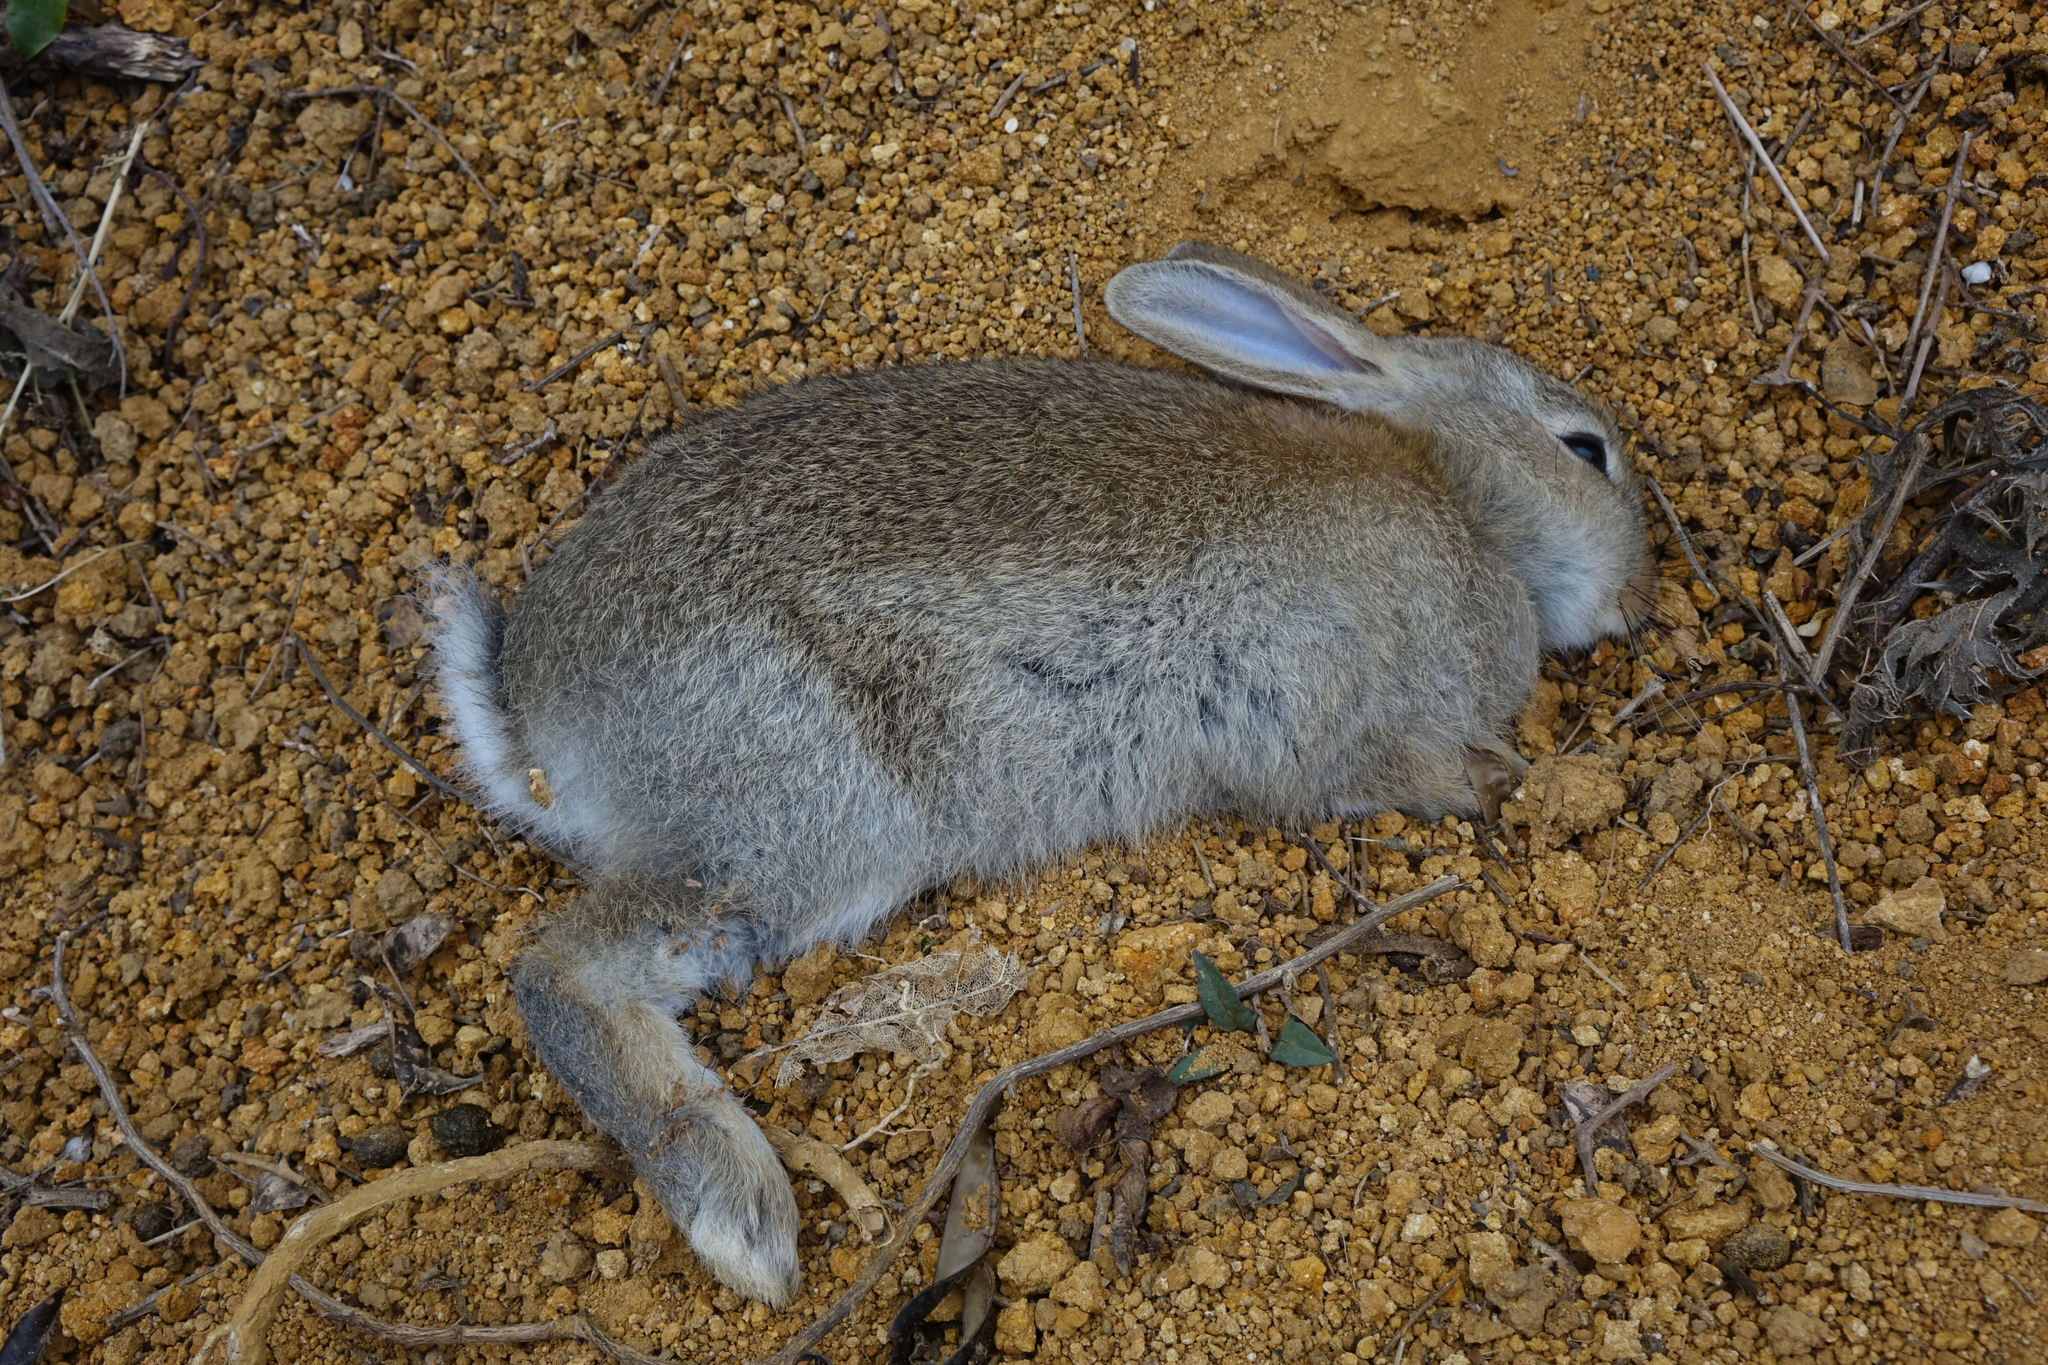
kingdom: Animalia
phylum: Chordata
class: Mammalia
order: Lagomorpha
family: Leporidae
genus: Oryctolagus
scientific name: Oryctolagus cuniculus
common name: European rabbit
